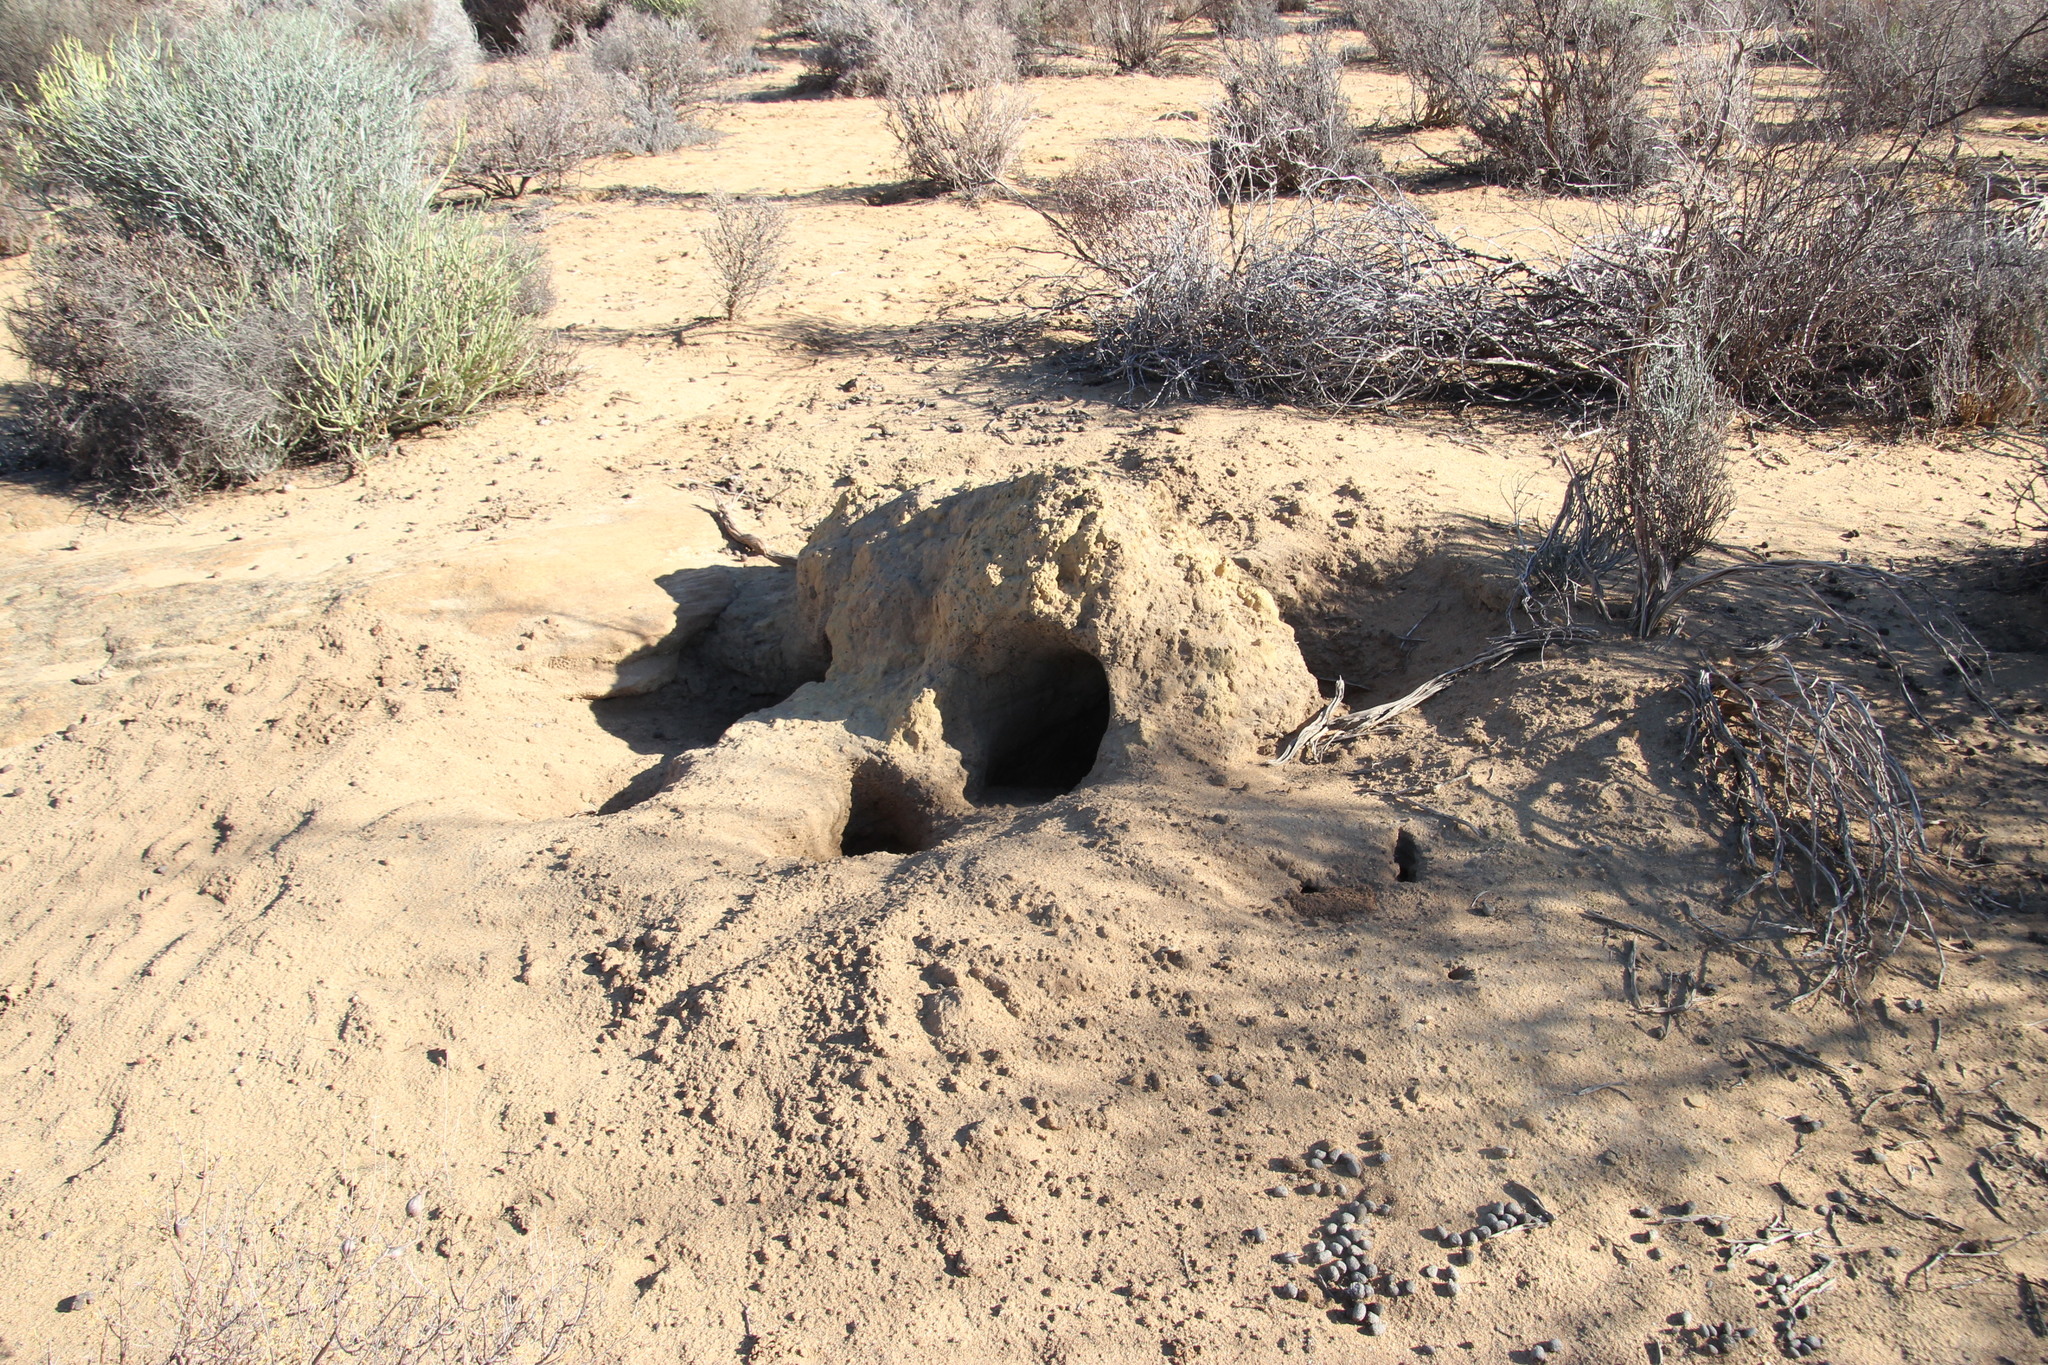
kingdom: Animalia
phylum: Chordata
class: Mammalia
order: Tubulidentata
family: Orycteropodidae
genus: Orycteropus
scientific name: Orycteropus afer
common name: Aardvark
